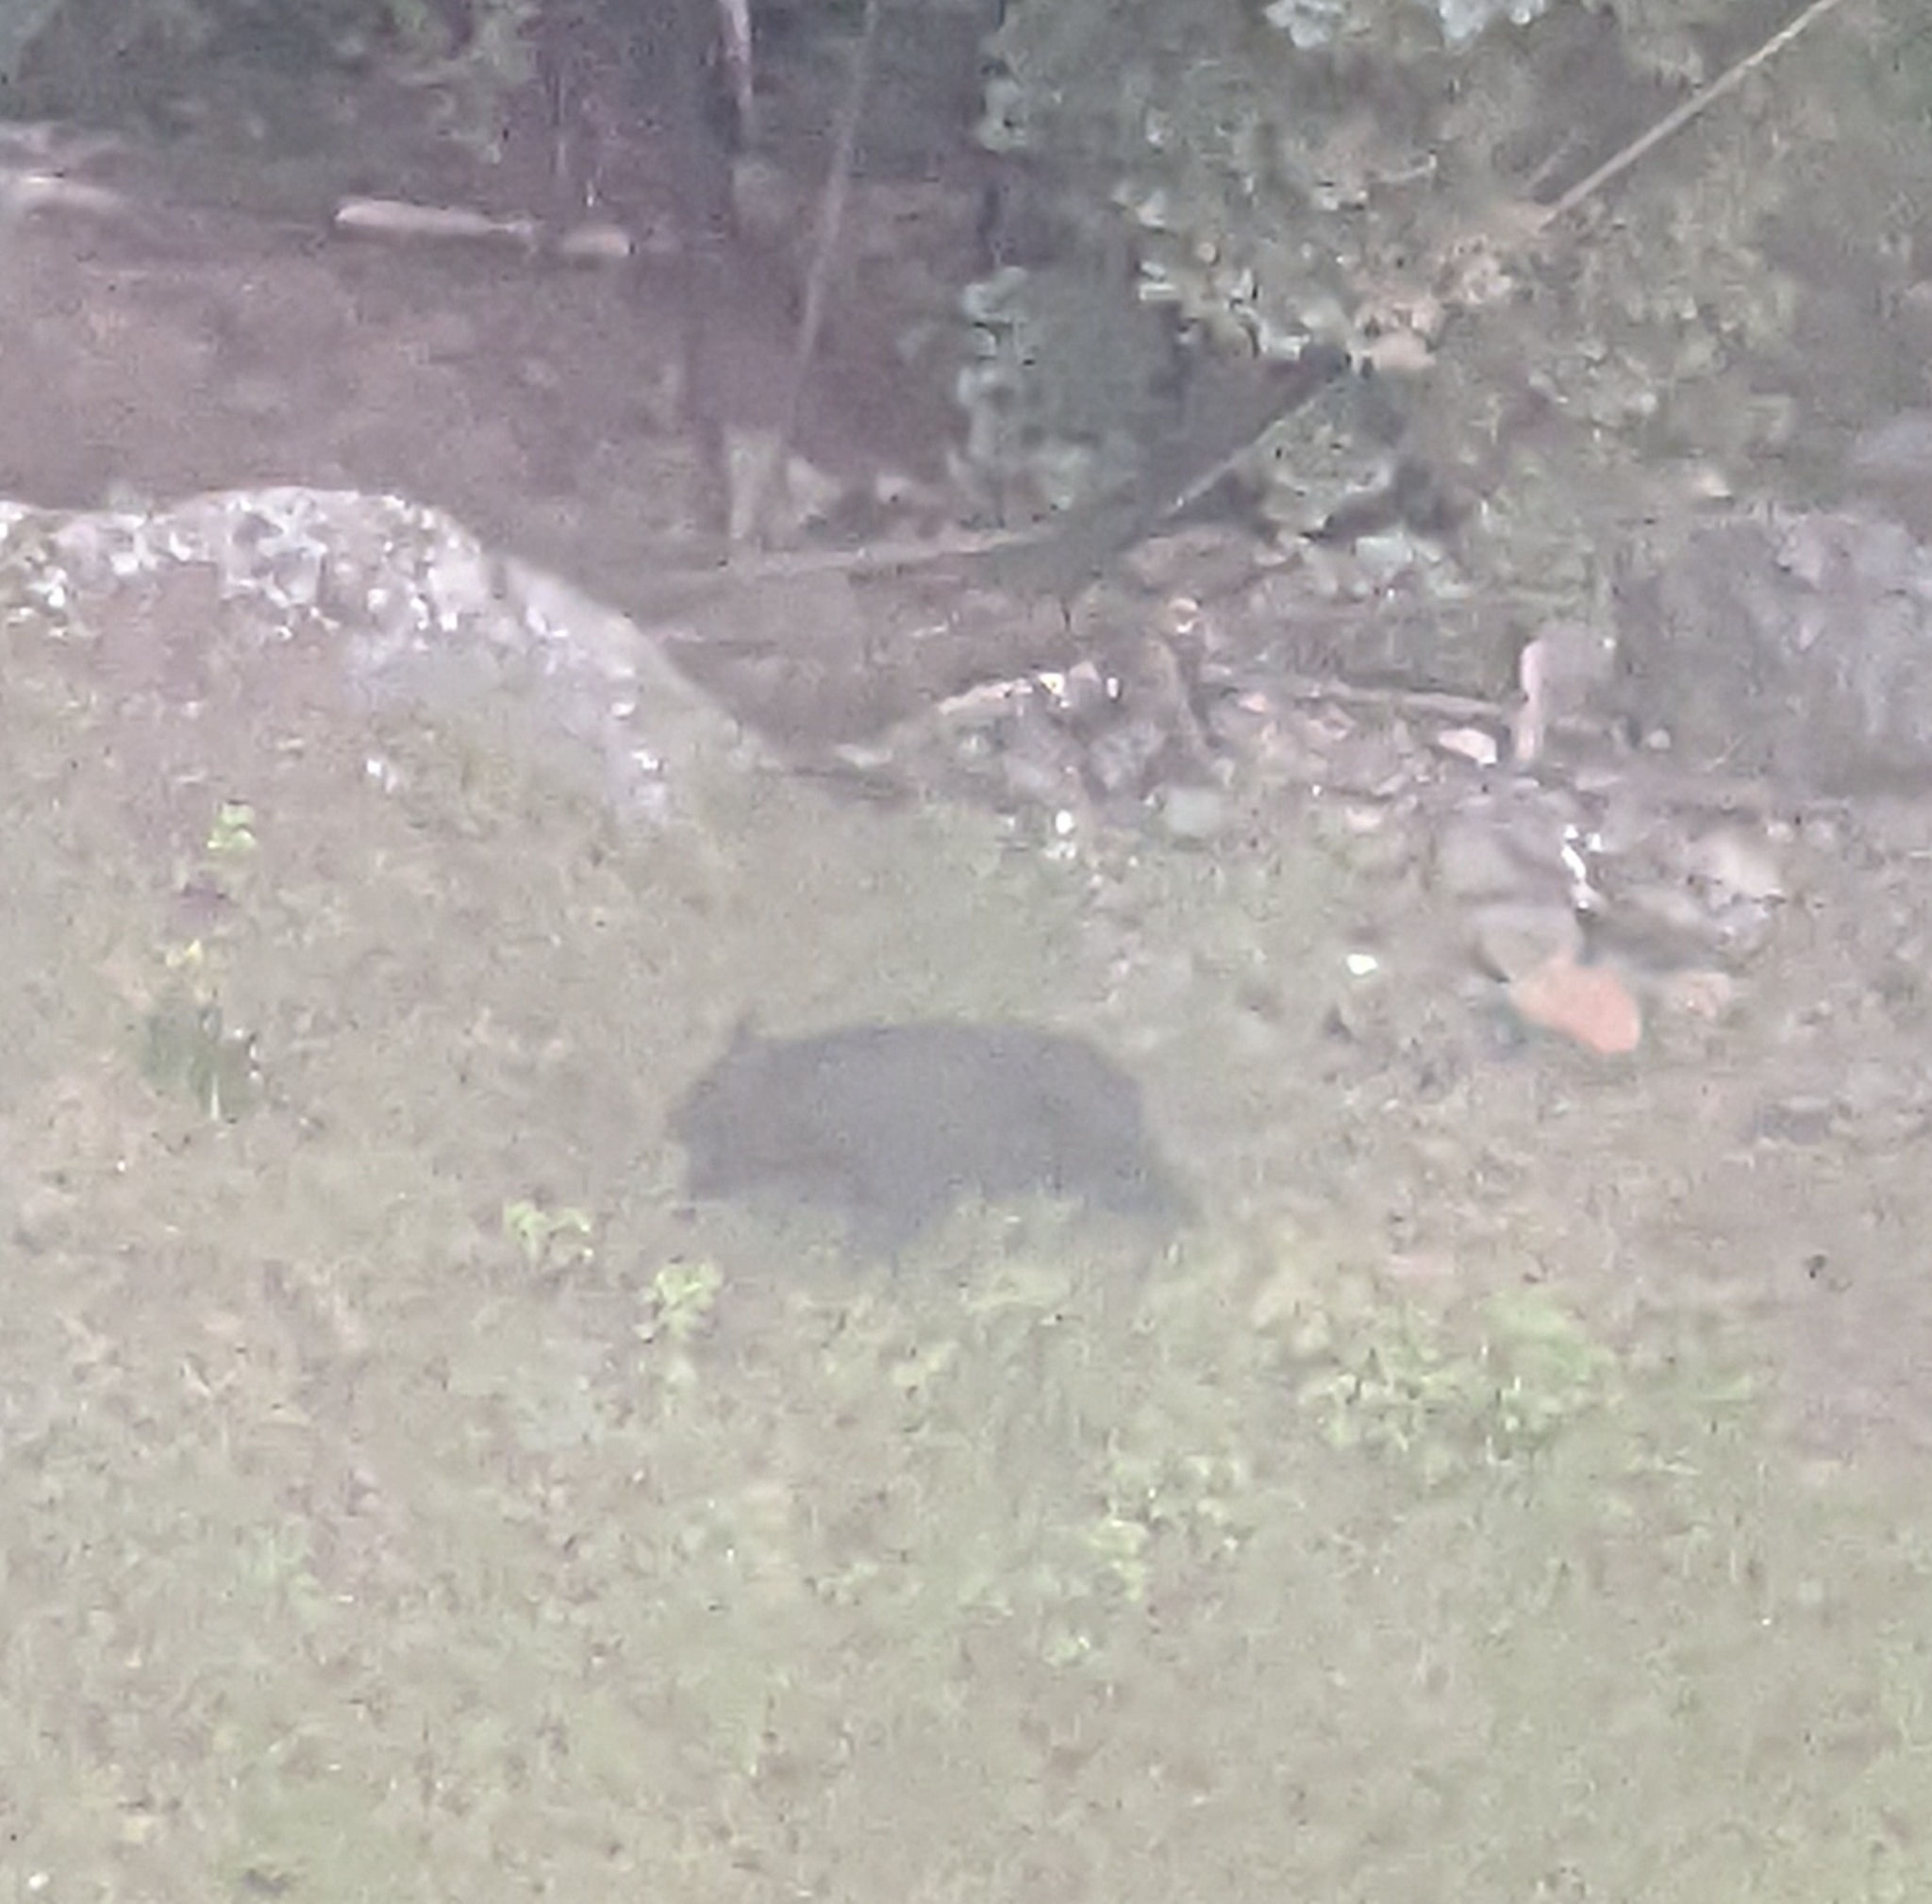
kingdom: Animalia
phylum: Chordata
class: Mammalia
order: Carnivora
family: Ursidae
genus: Ursus
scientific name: Ursus americanus
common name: American black bear
